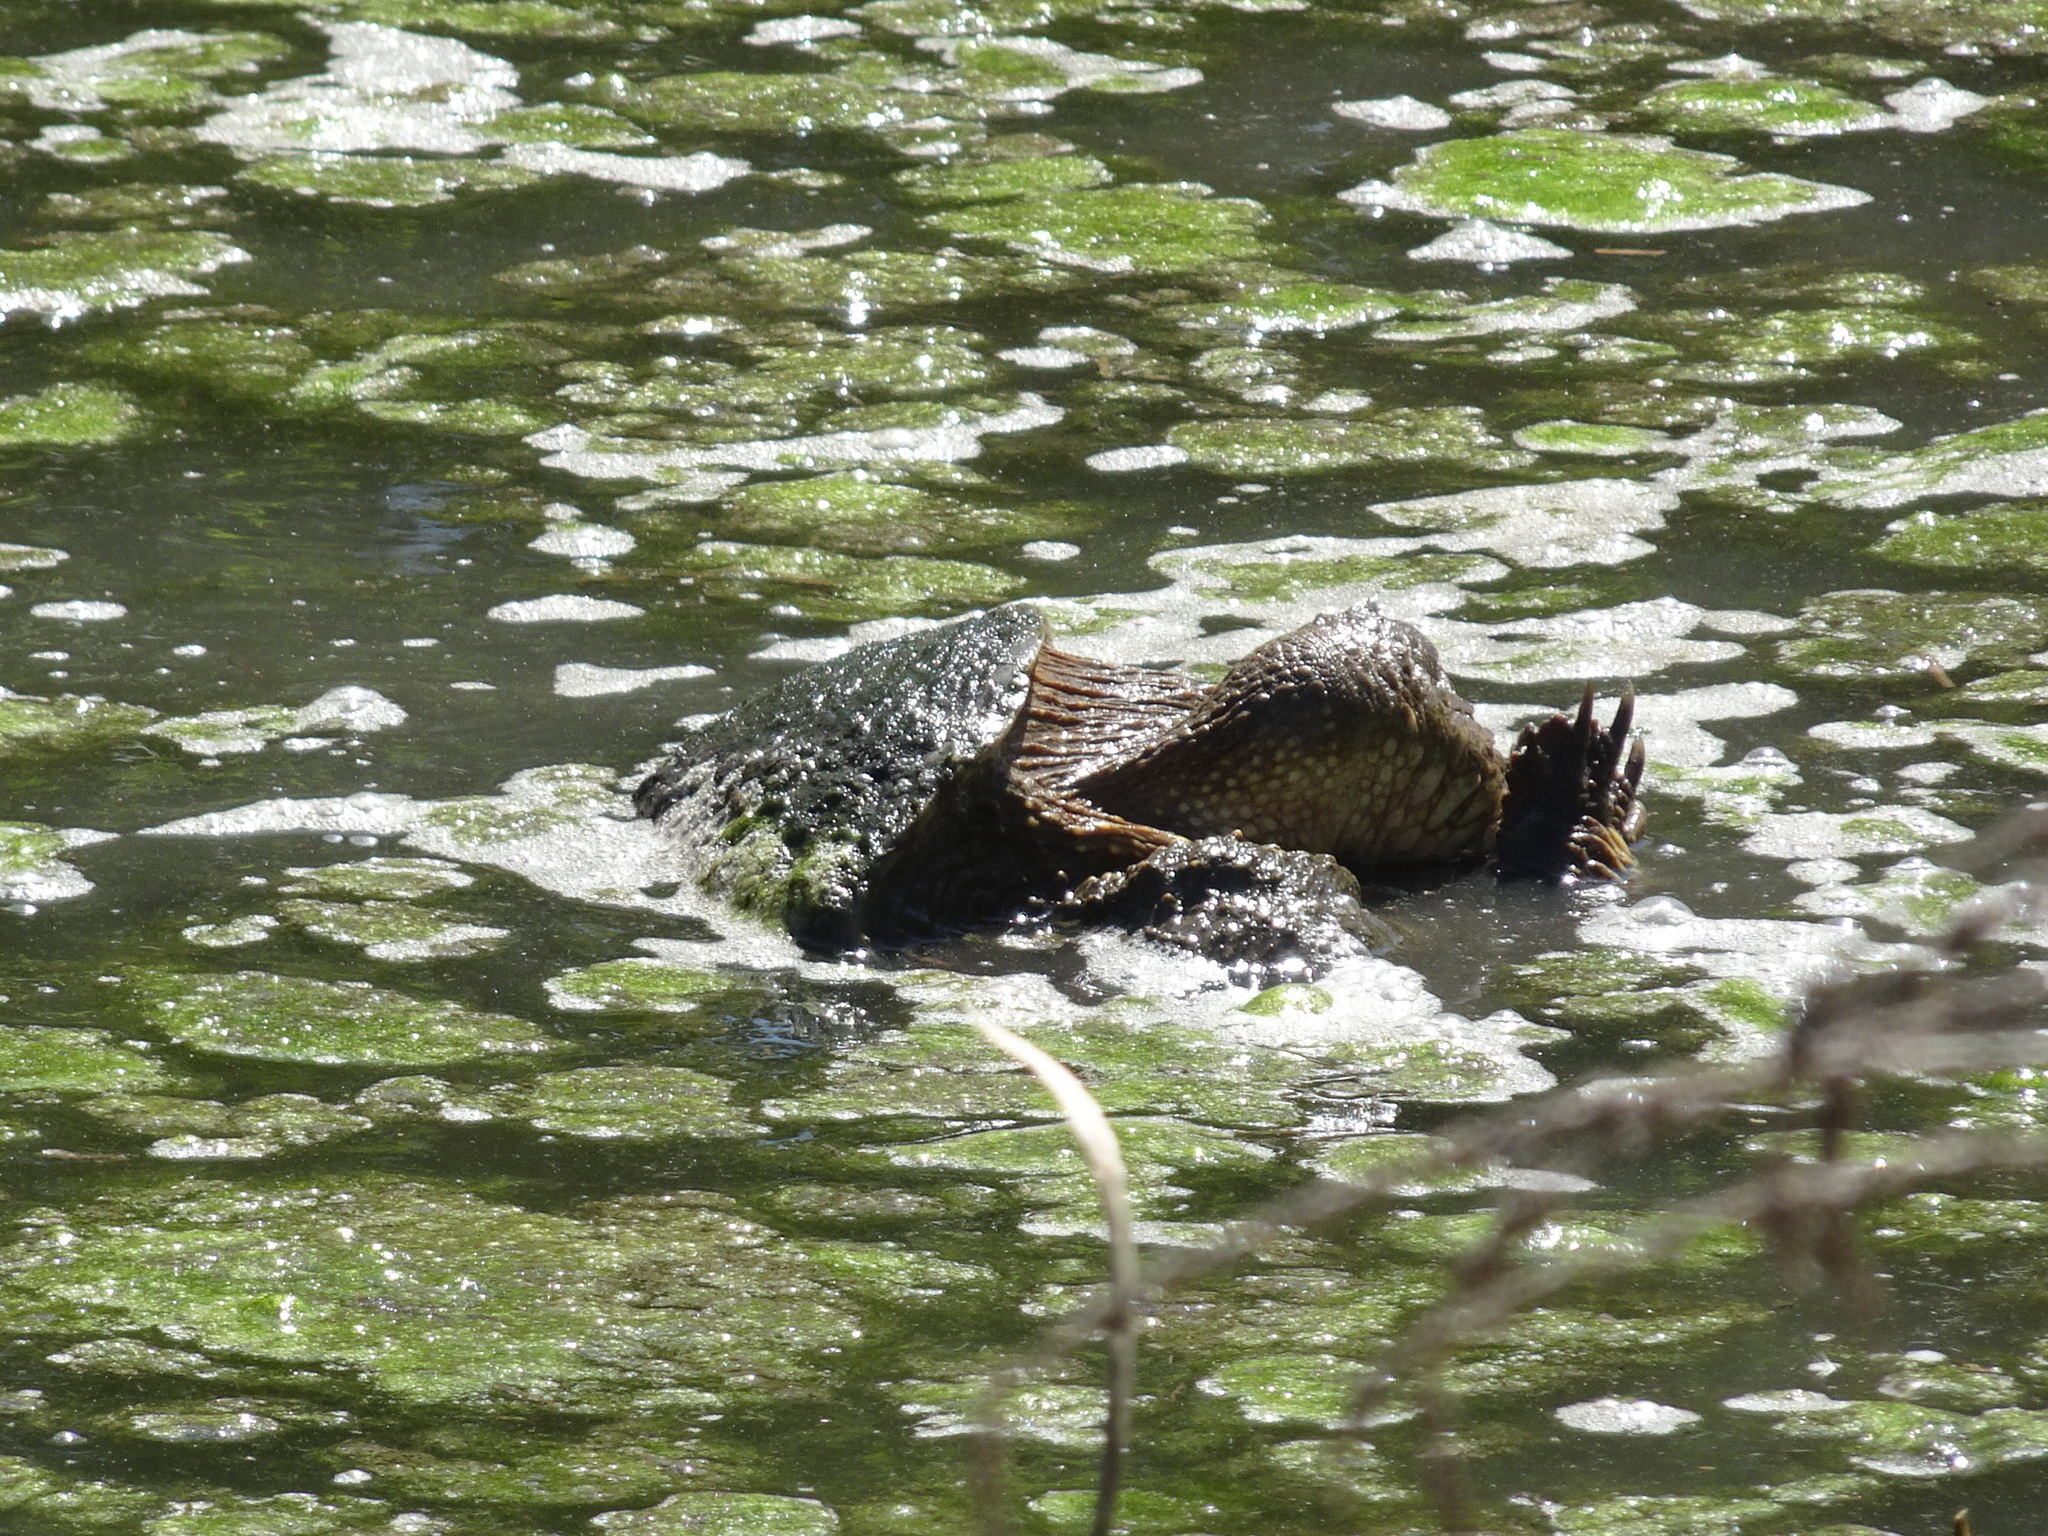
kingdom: Animalia
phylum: Chordata
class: Testudines
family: Chelydridae
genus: Chelydra
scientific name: Chelydra serpentina
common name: Common snapping turtle
